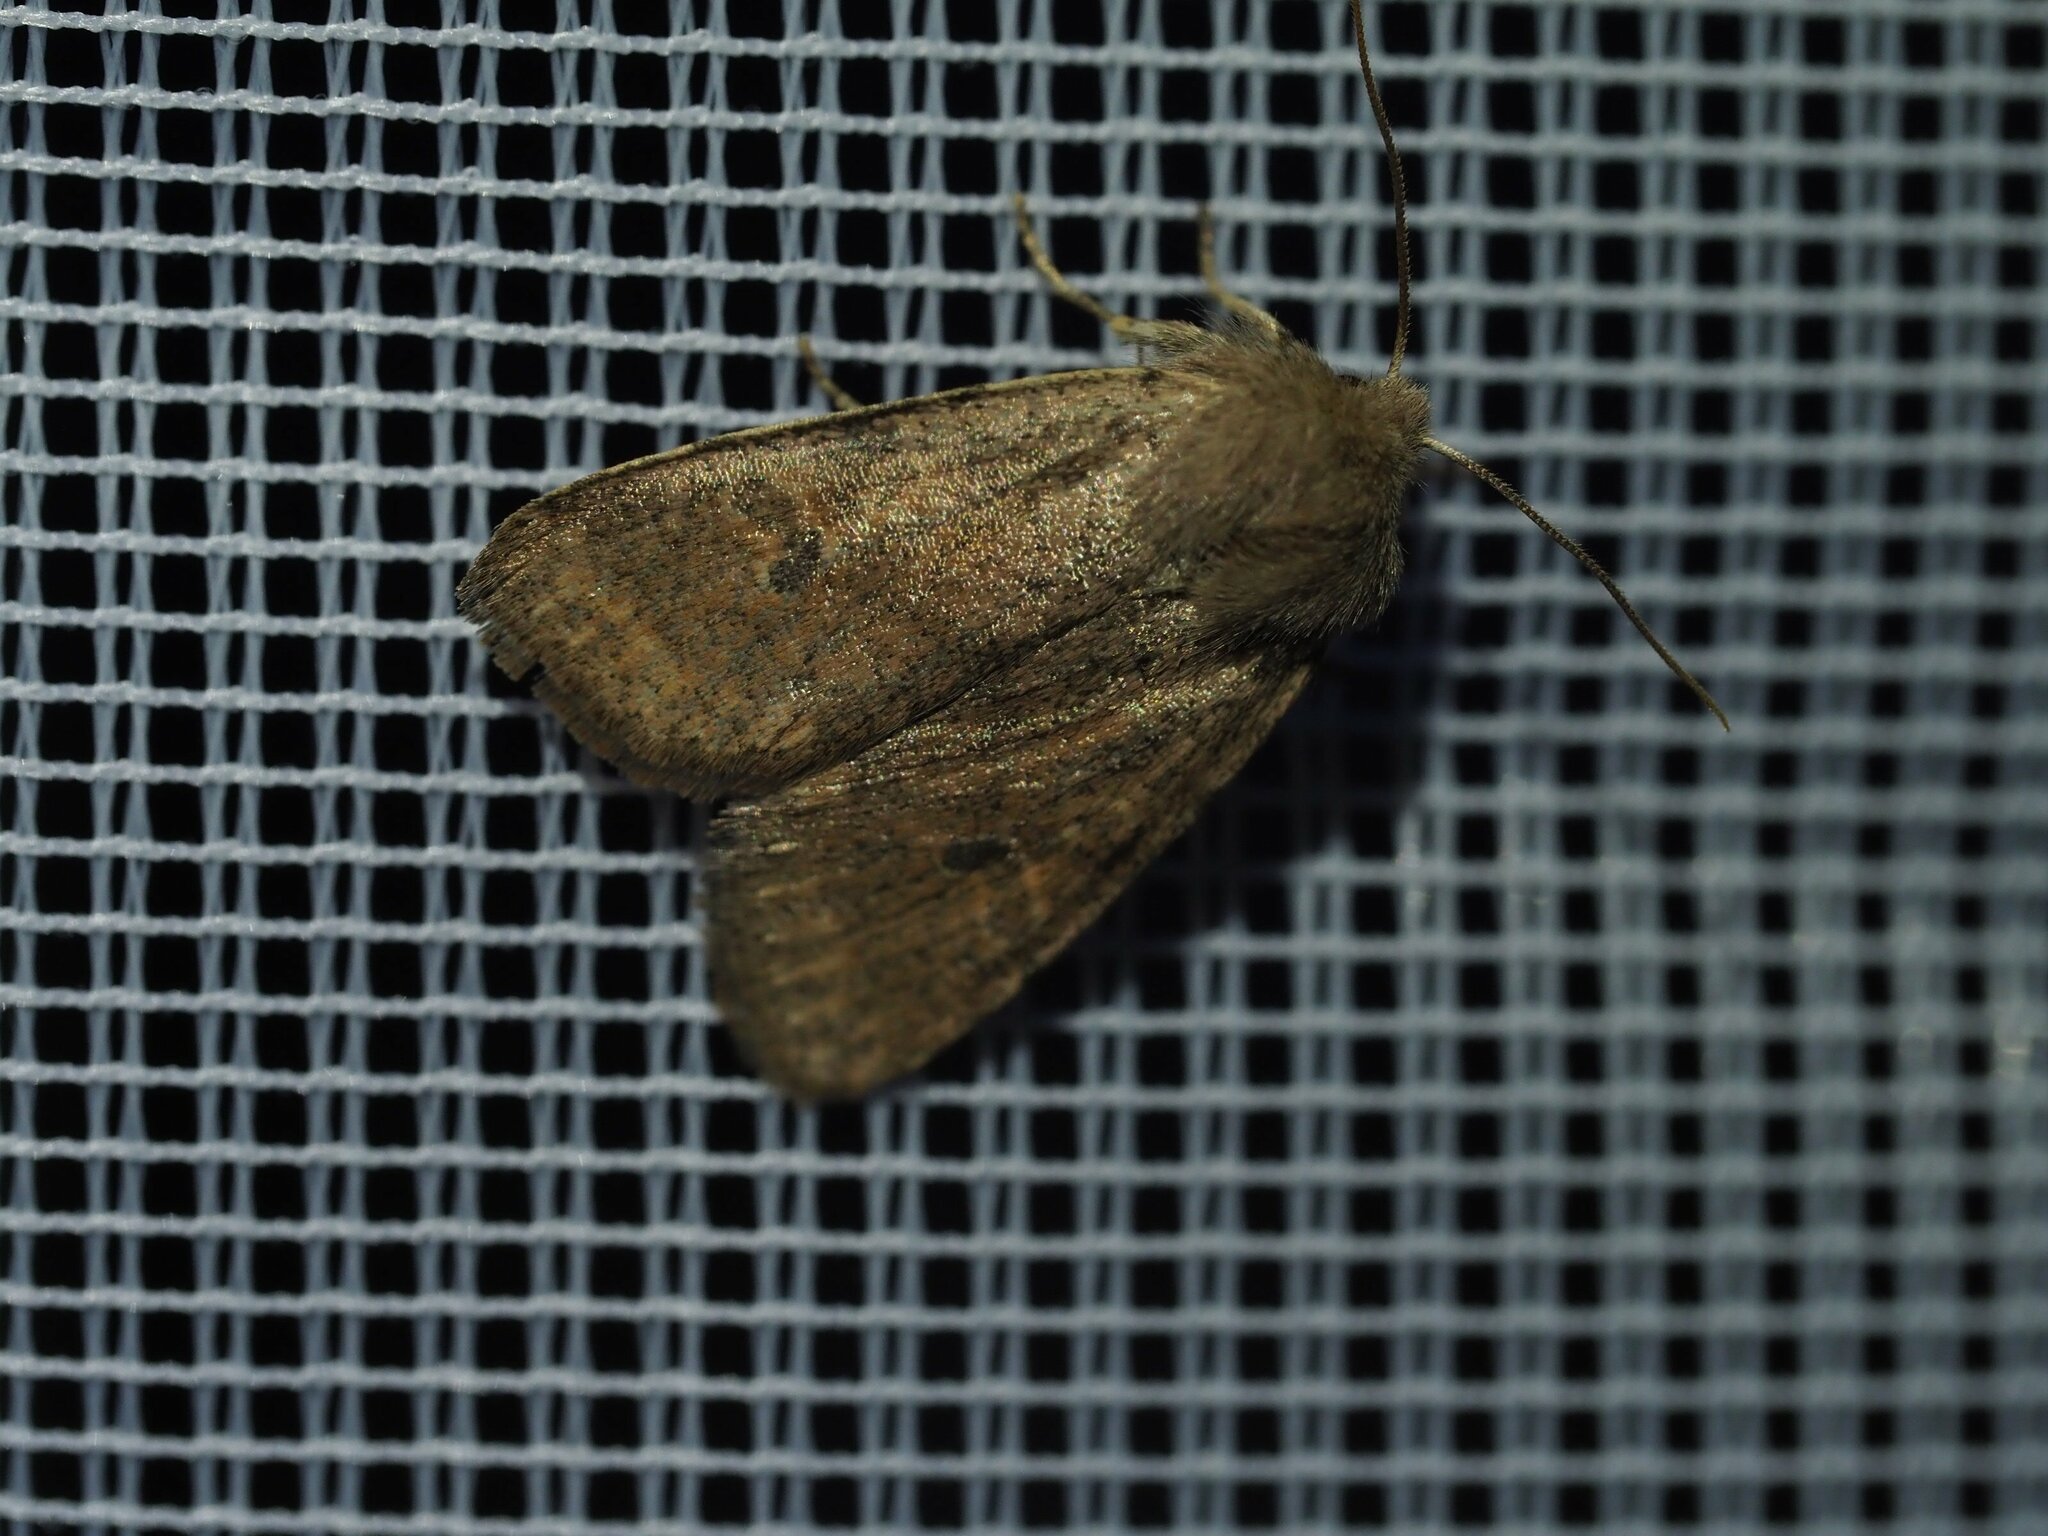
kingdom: Animalia
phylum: Arthropoda
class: Insecta
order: Lepidoptera
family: Noctuidae
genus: Orthosia
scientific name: Orthosia cruda
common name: Small quaker
